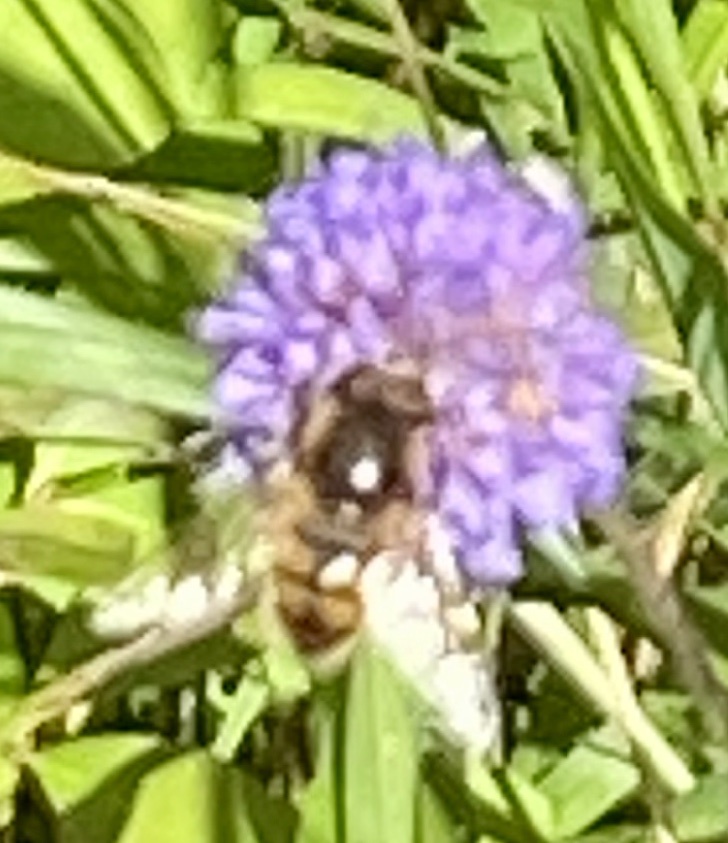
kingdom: Animalia
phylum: Arthropoda
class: Insecta
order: Diptera
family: Syrphidae
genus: Eristalis
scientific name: Eristalis
